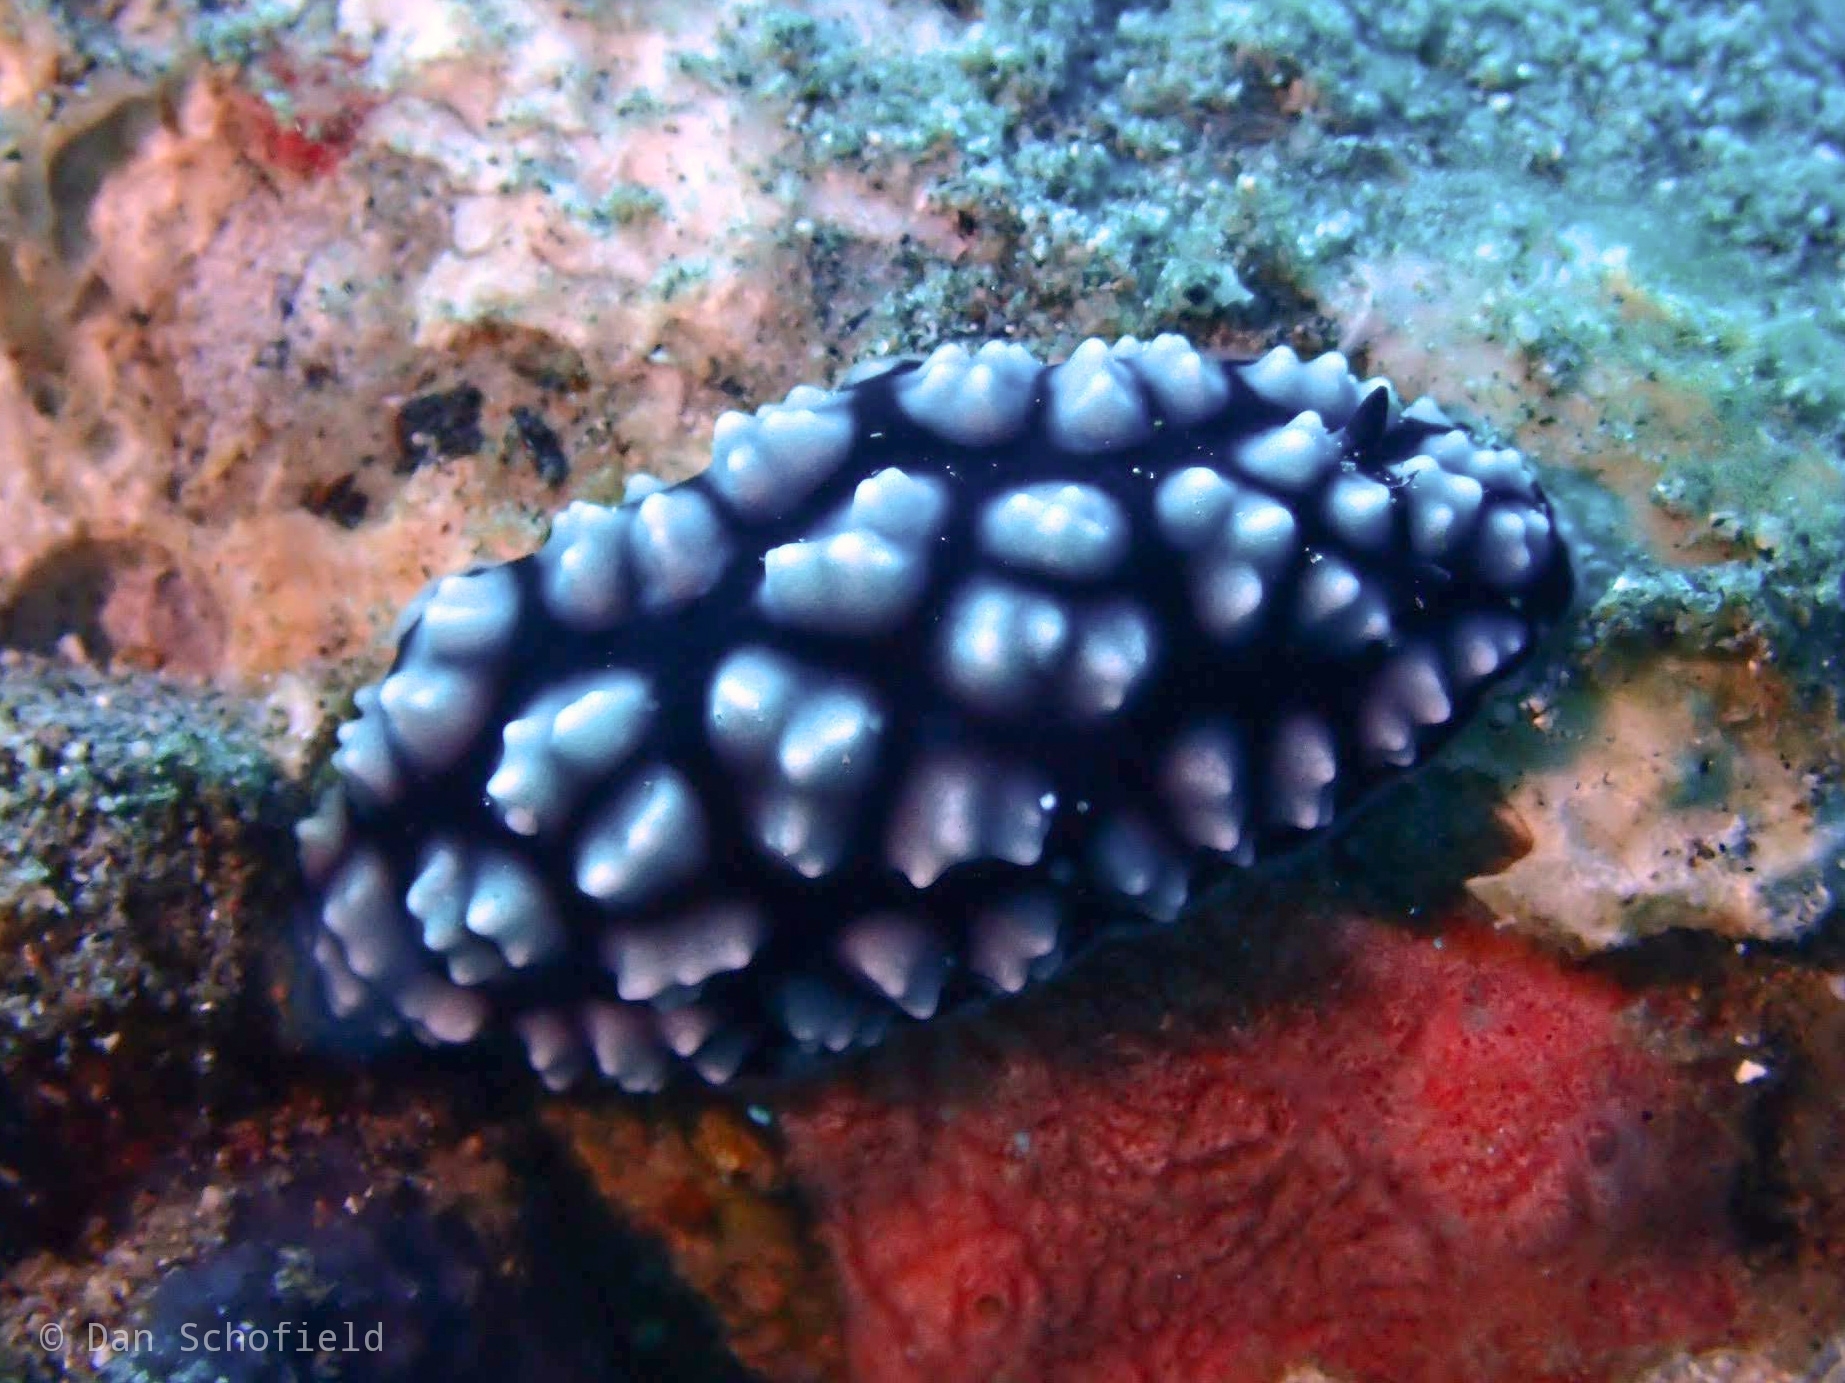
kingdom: Animalia
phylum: Mollusca
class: Gastropoda
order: Nudibranchia
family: Phyllidiidae
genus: Phyllidiella
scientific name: Phyllidiella pustulosa
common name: Pustular phyllidia
